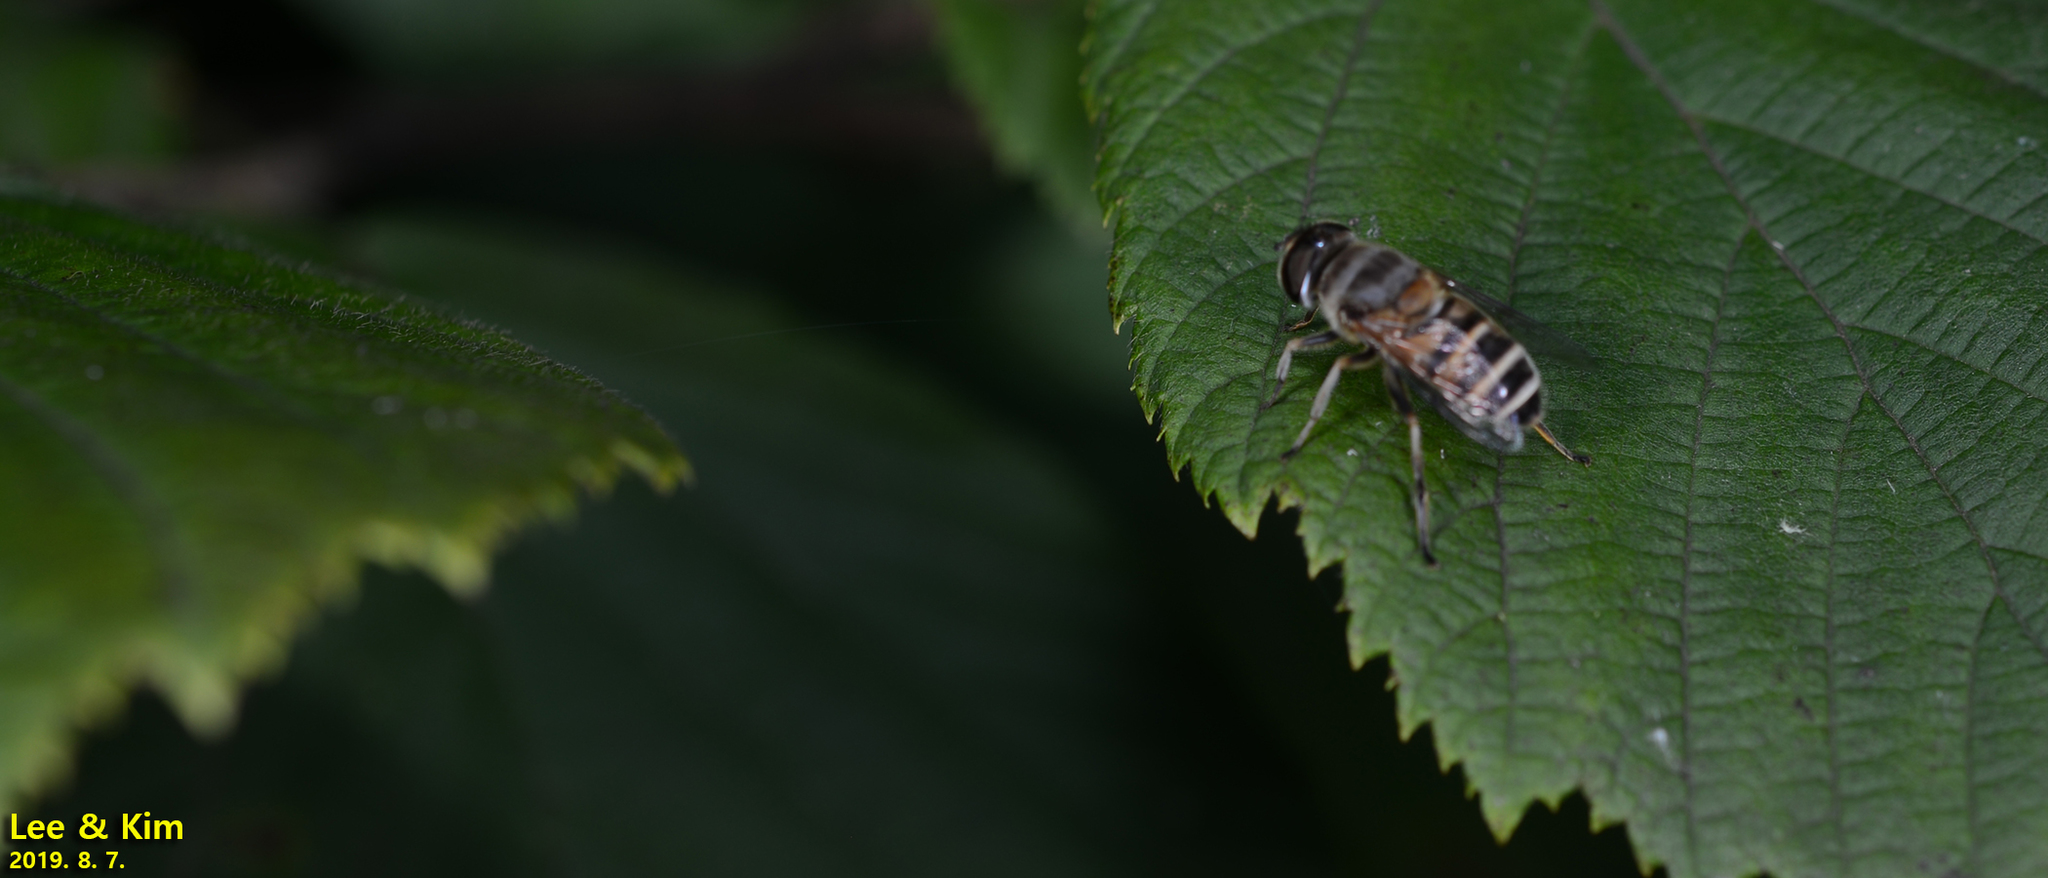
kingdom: Animalia
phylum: Arthropoda
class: Insecta
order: Diptera
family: Syrphidae
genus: Eristalis
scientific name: Eristalis cerealis
